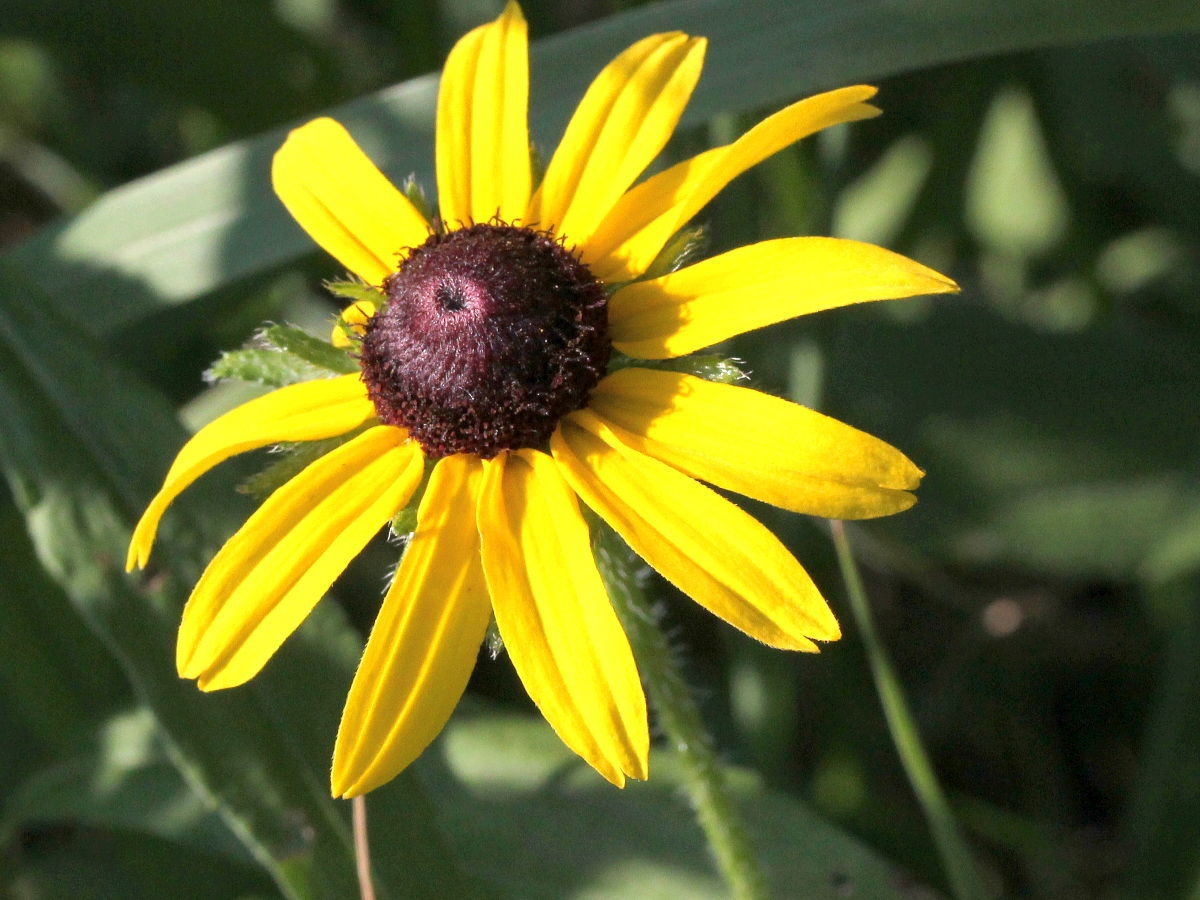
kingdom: Plantae
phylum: Tracheophyta
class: Magnoliopsida
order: Asterales
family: Asteraceae
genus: Rudbeckia
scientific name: Rudbeckia hirta
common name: Black-eyed-susan
